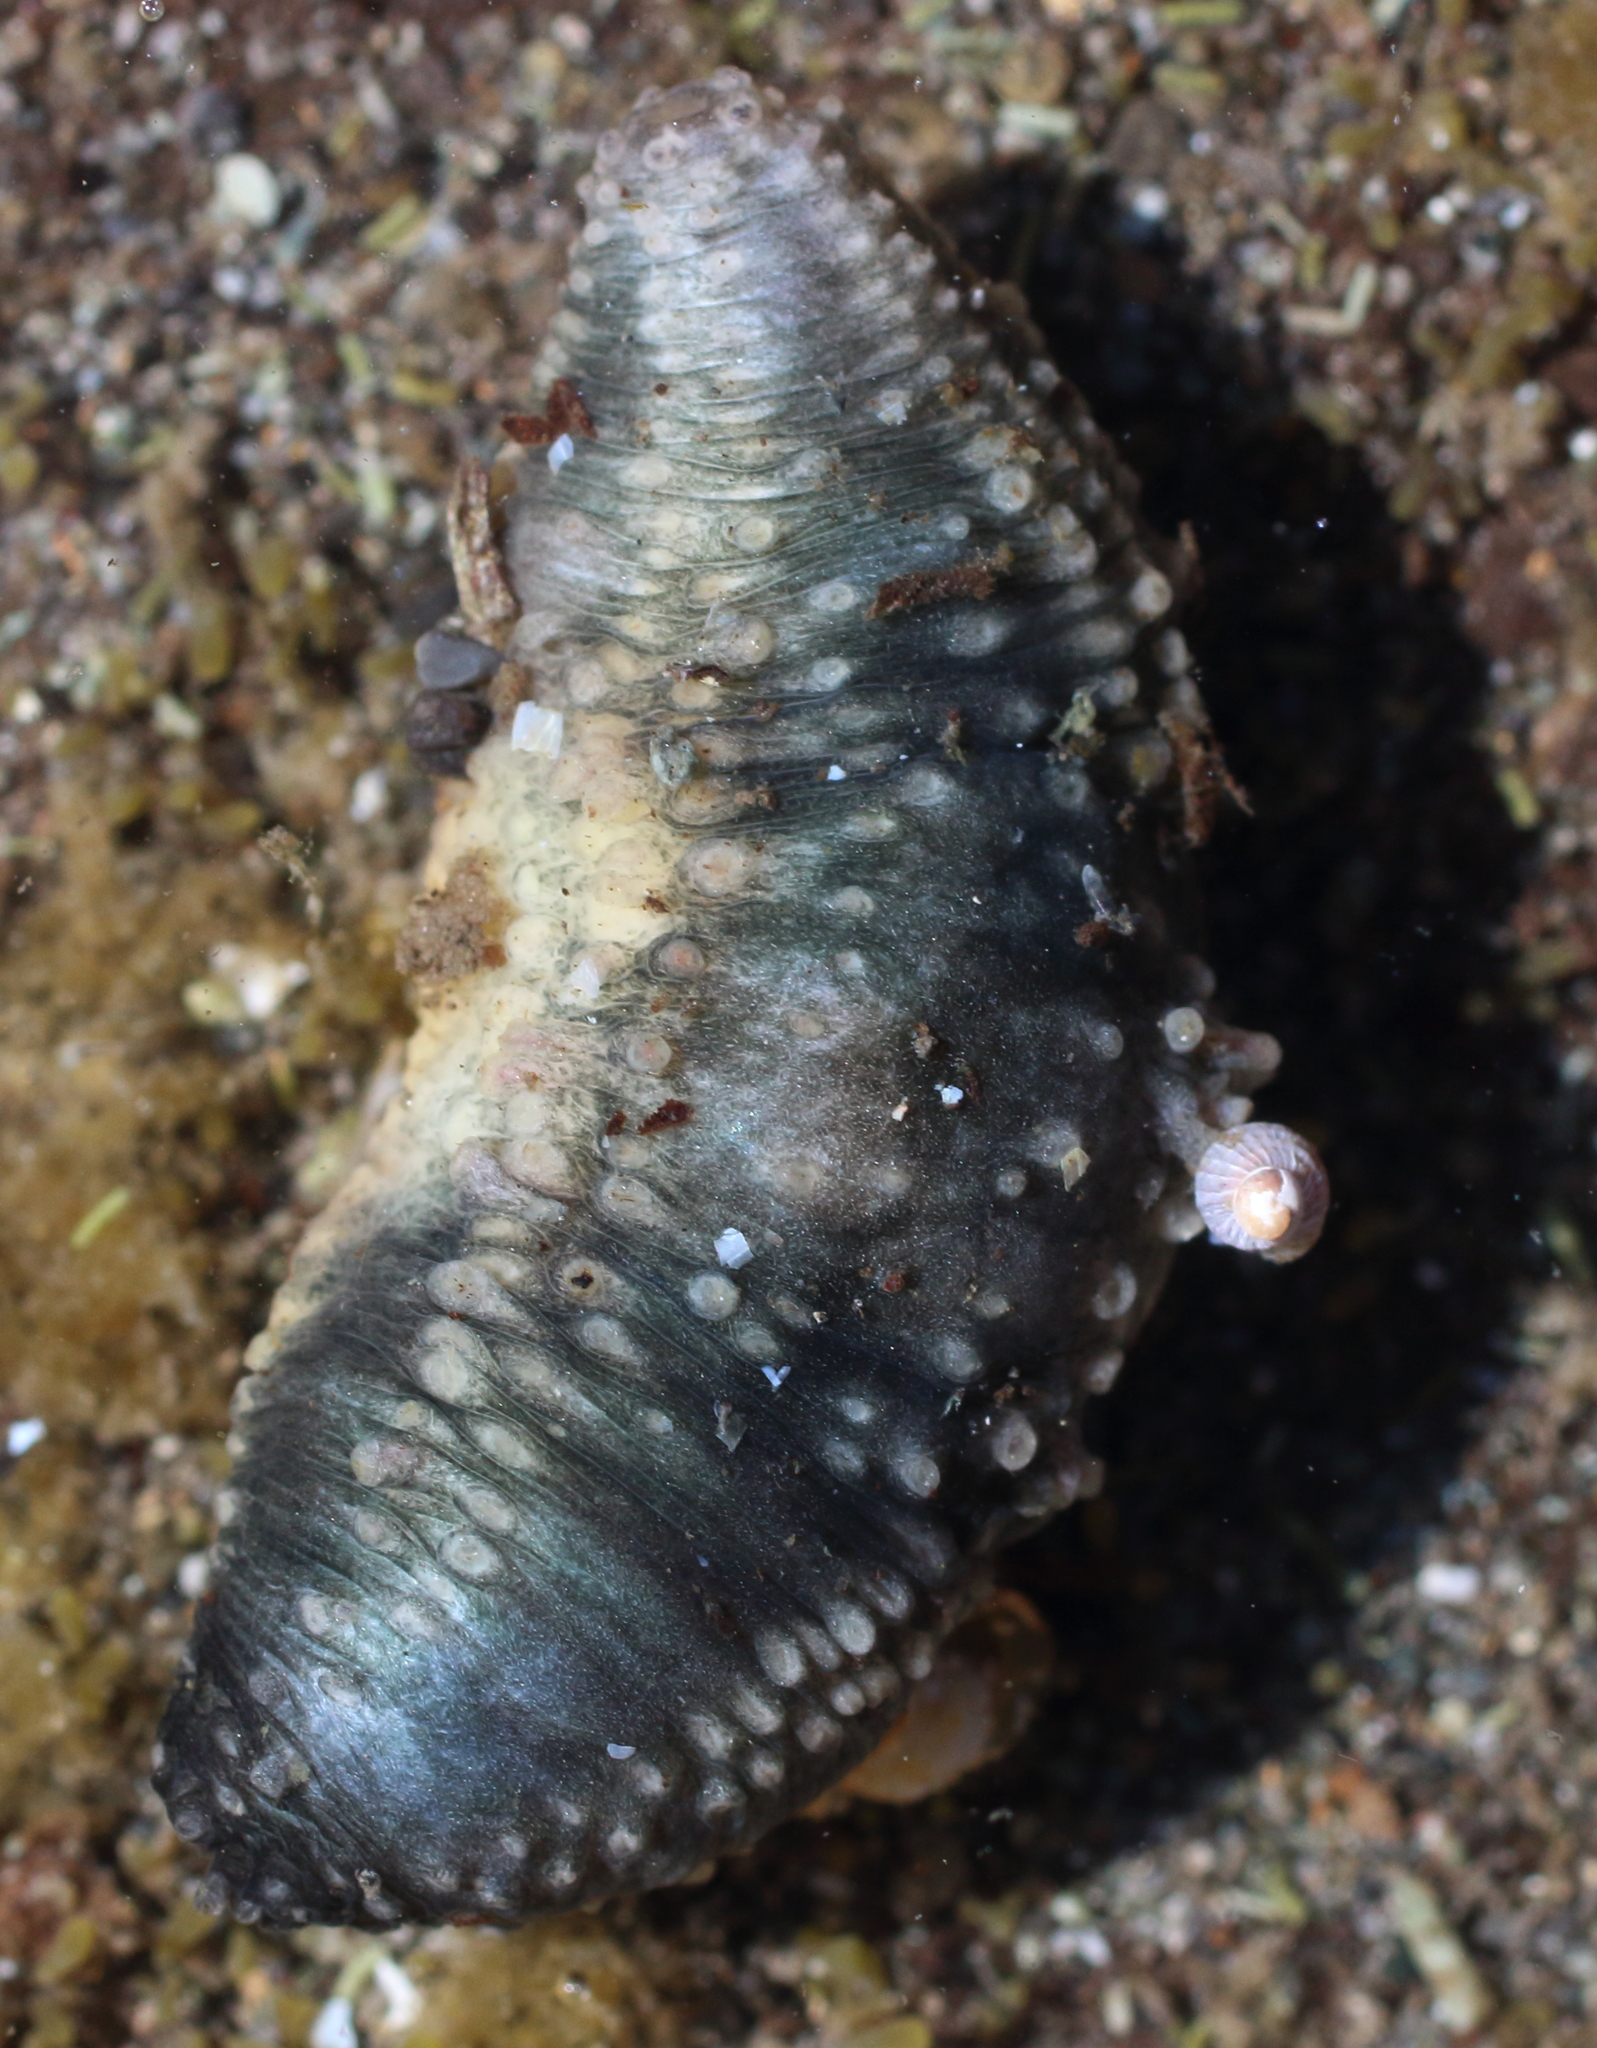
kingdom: Animalia
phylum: Echinodermata
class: Holothuroidea
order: Dendrochirotida
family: Cucumariidae
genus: Cucumaria
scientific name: Cucumaria vegae
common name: Vega sea cucumber
